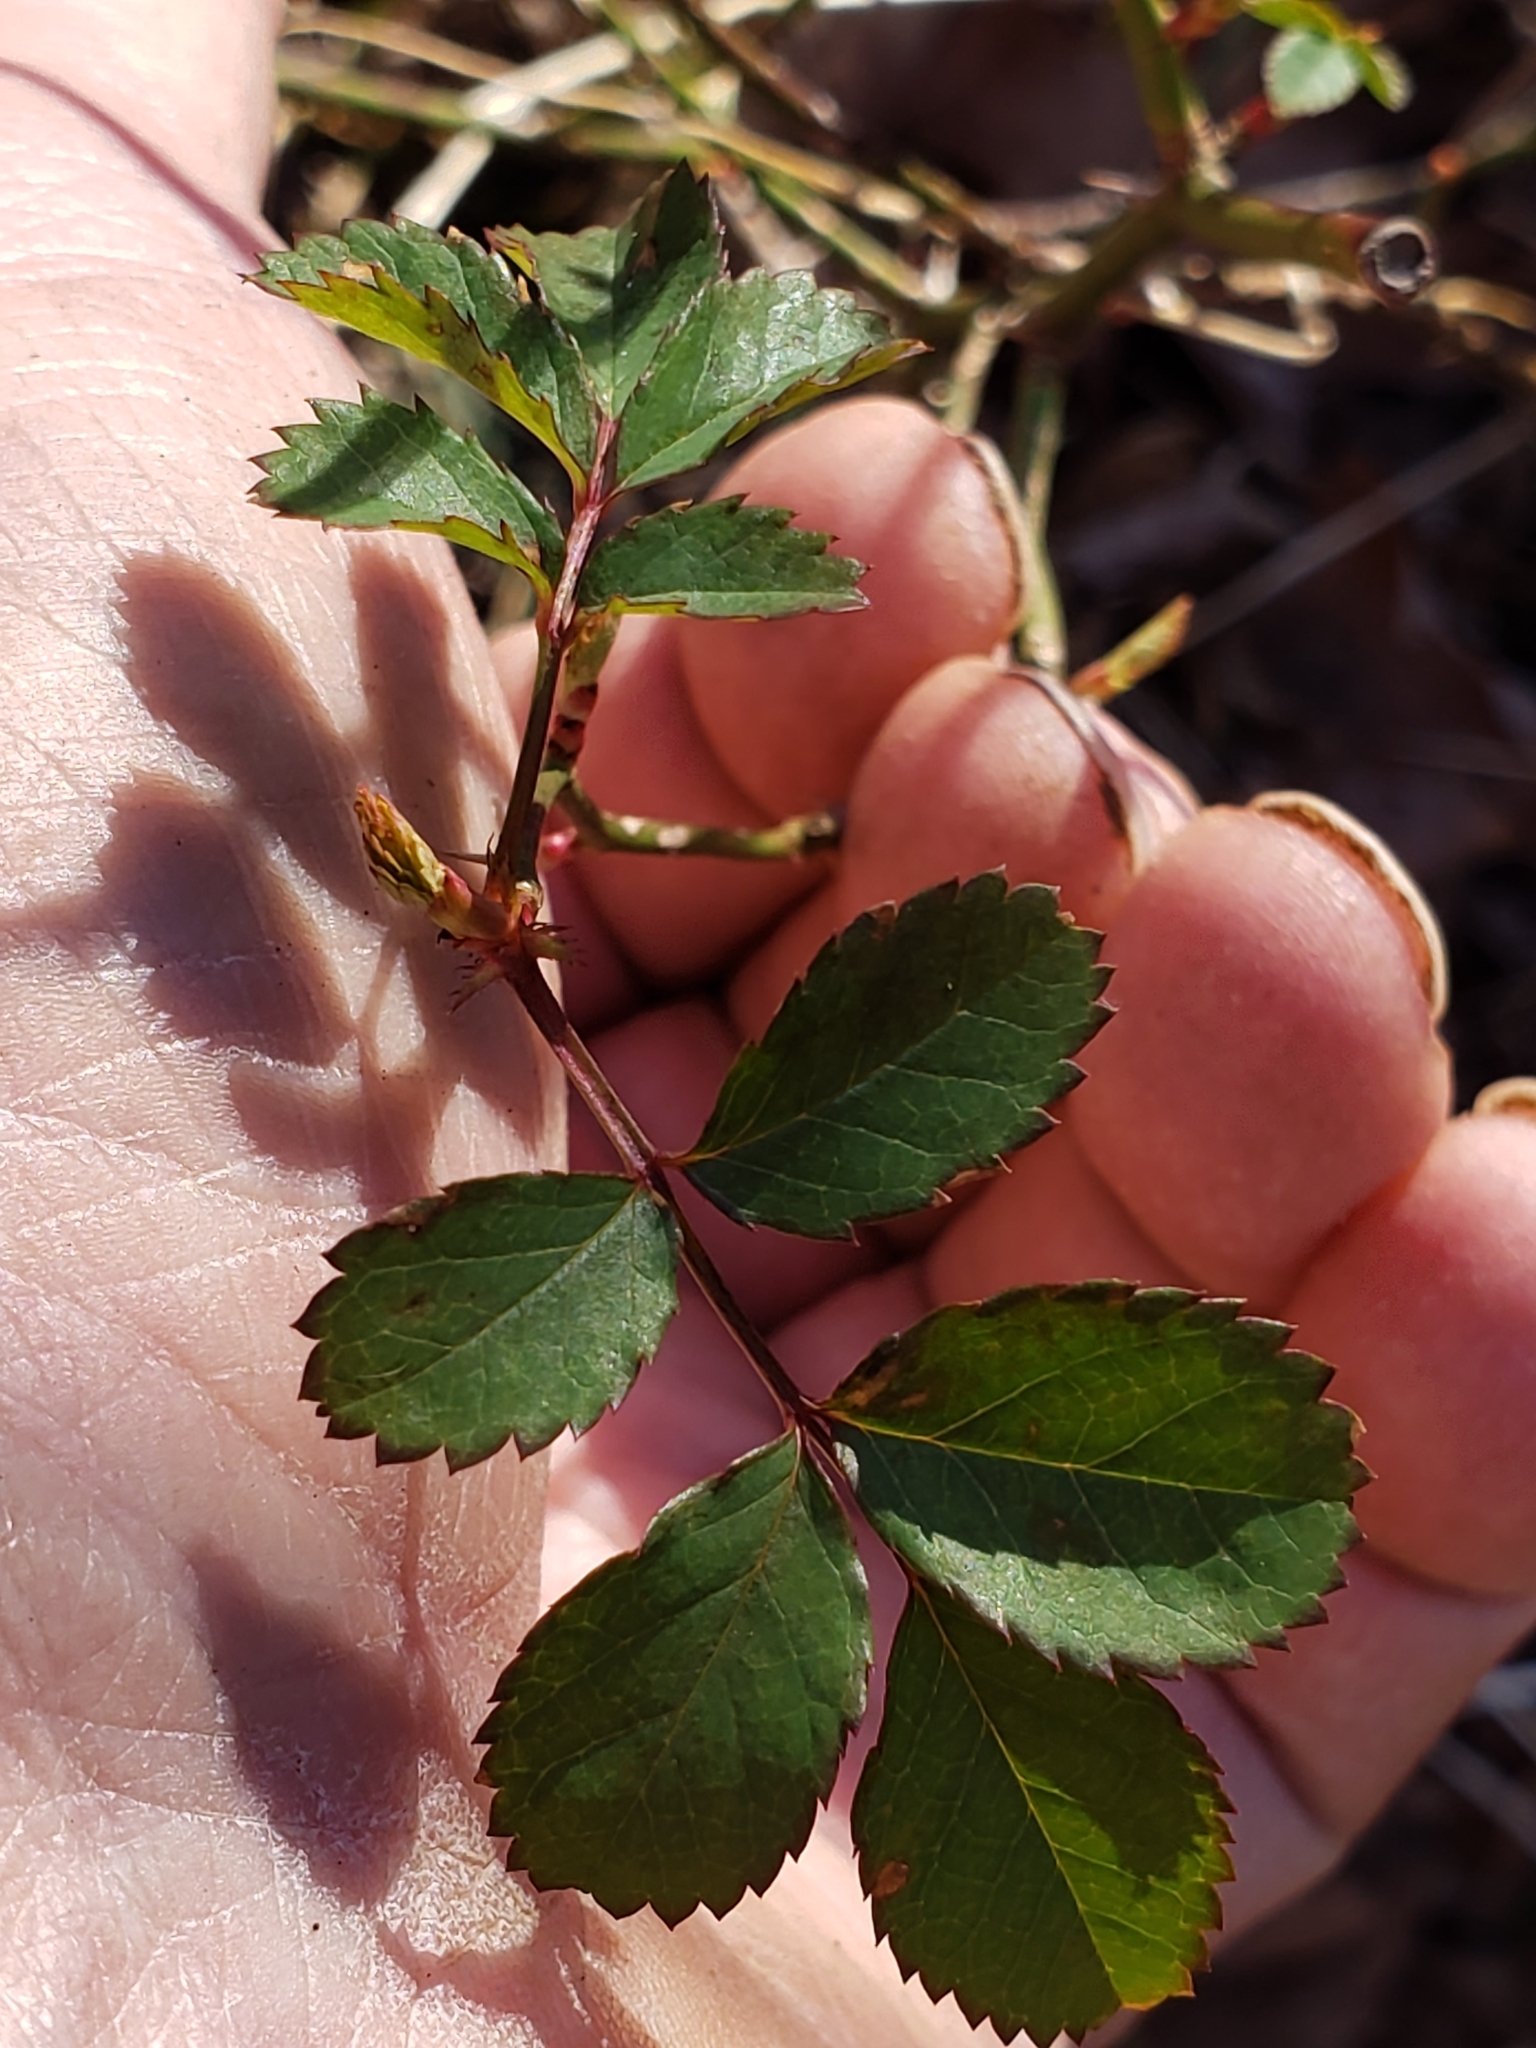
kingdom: Plantae
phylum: Tracheophyta
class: Magnoliopsida
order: Rosales
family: Rosaceae
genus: Rosa
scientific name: Rosa multiflora
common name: Multiflora rose
